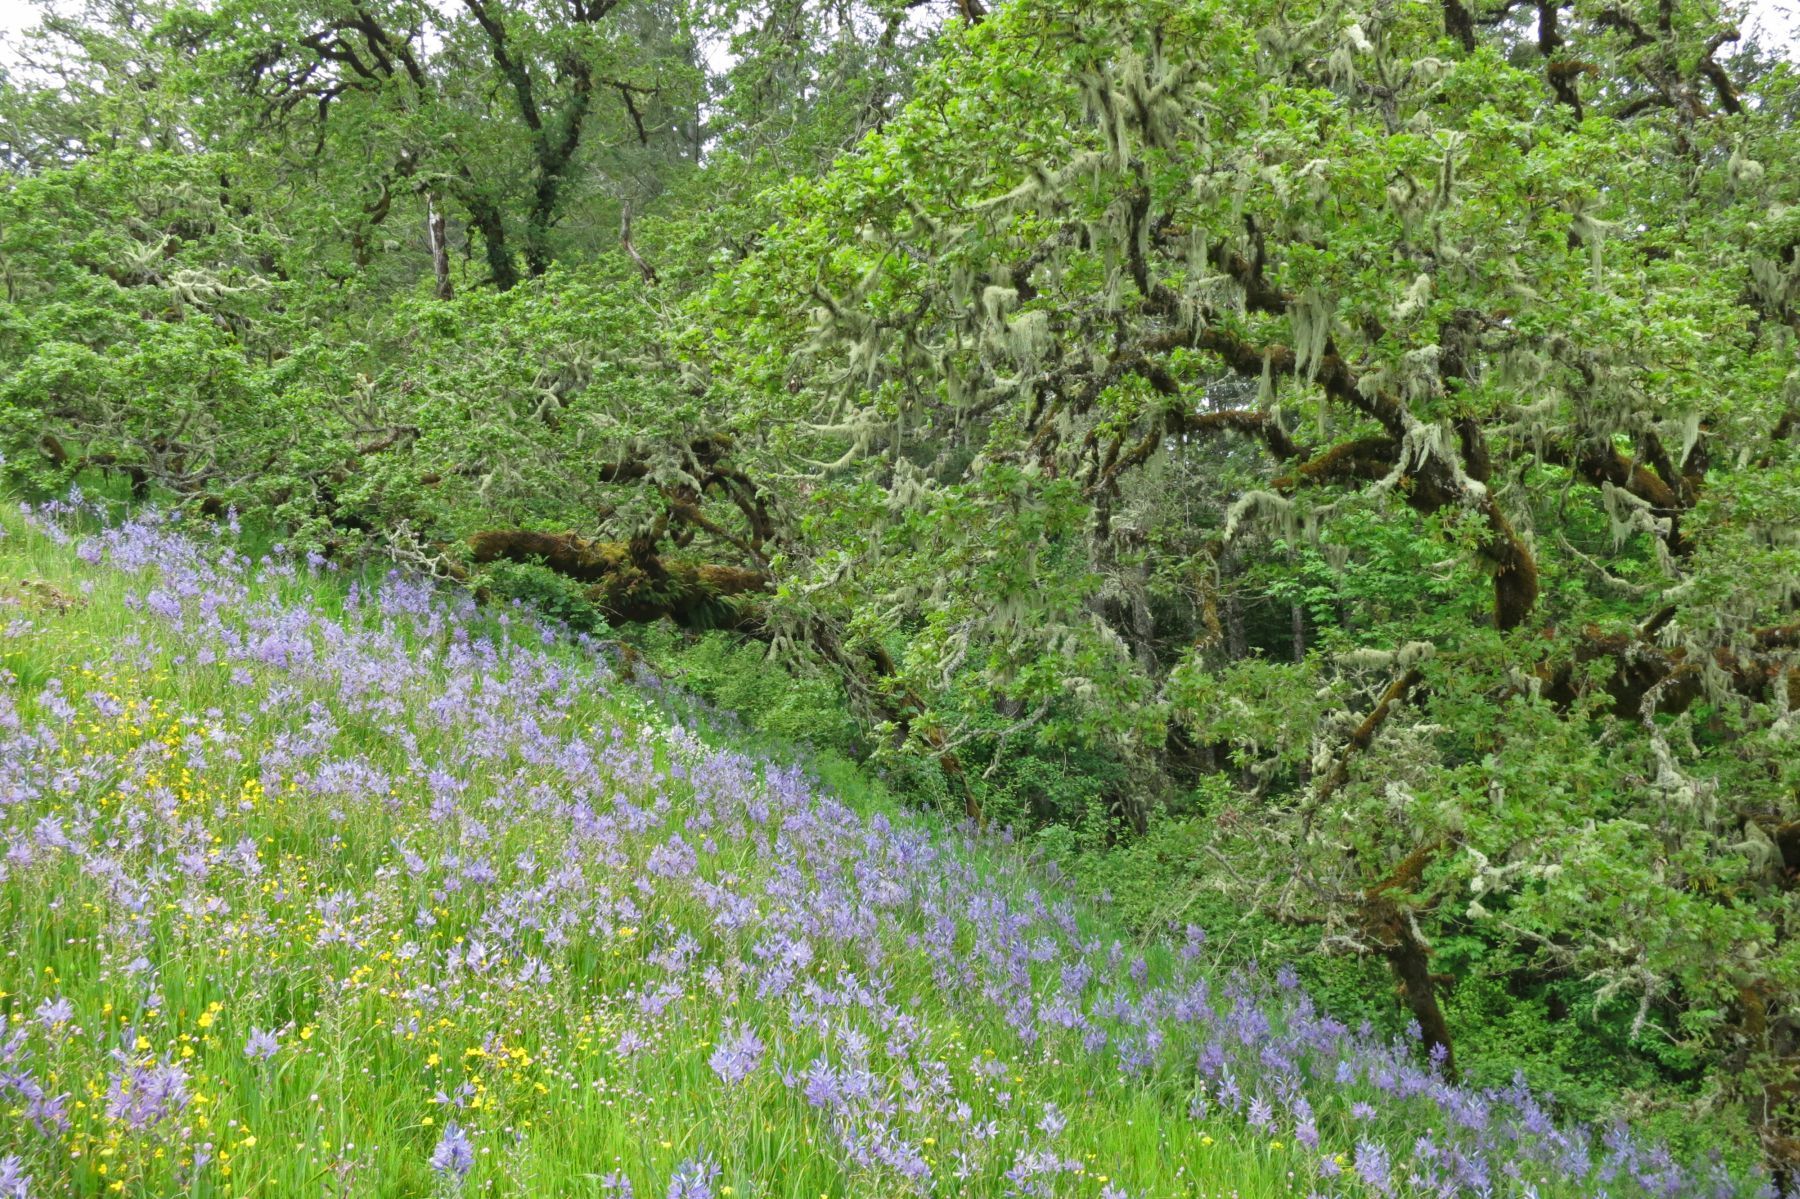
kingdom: Plantae
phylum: Tracheophyta
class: Magnoliopsida
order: Fagales
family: Fagaceae
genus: Quercus
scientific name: Quercus garryana
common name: Garry oak
